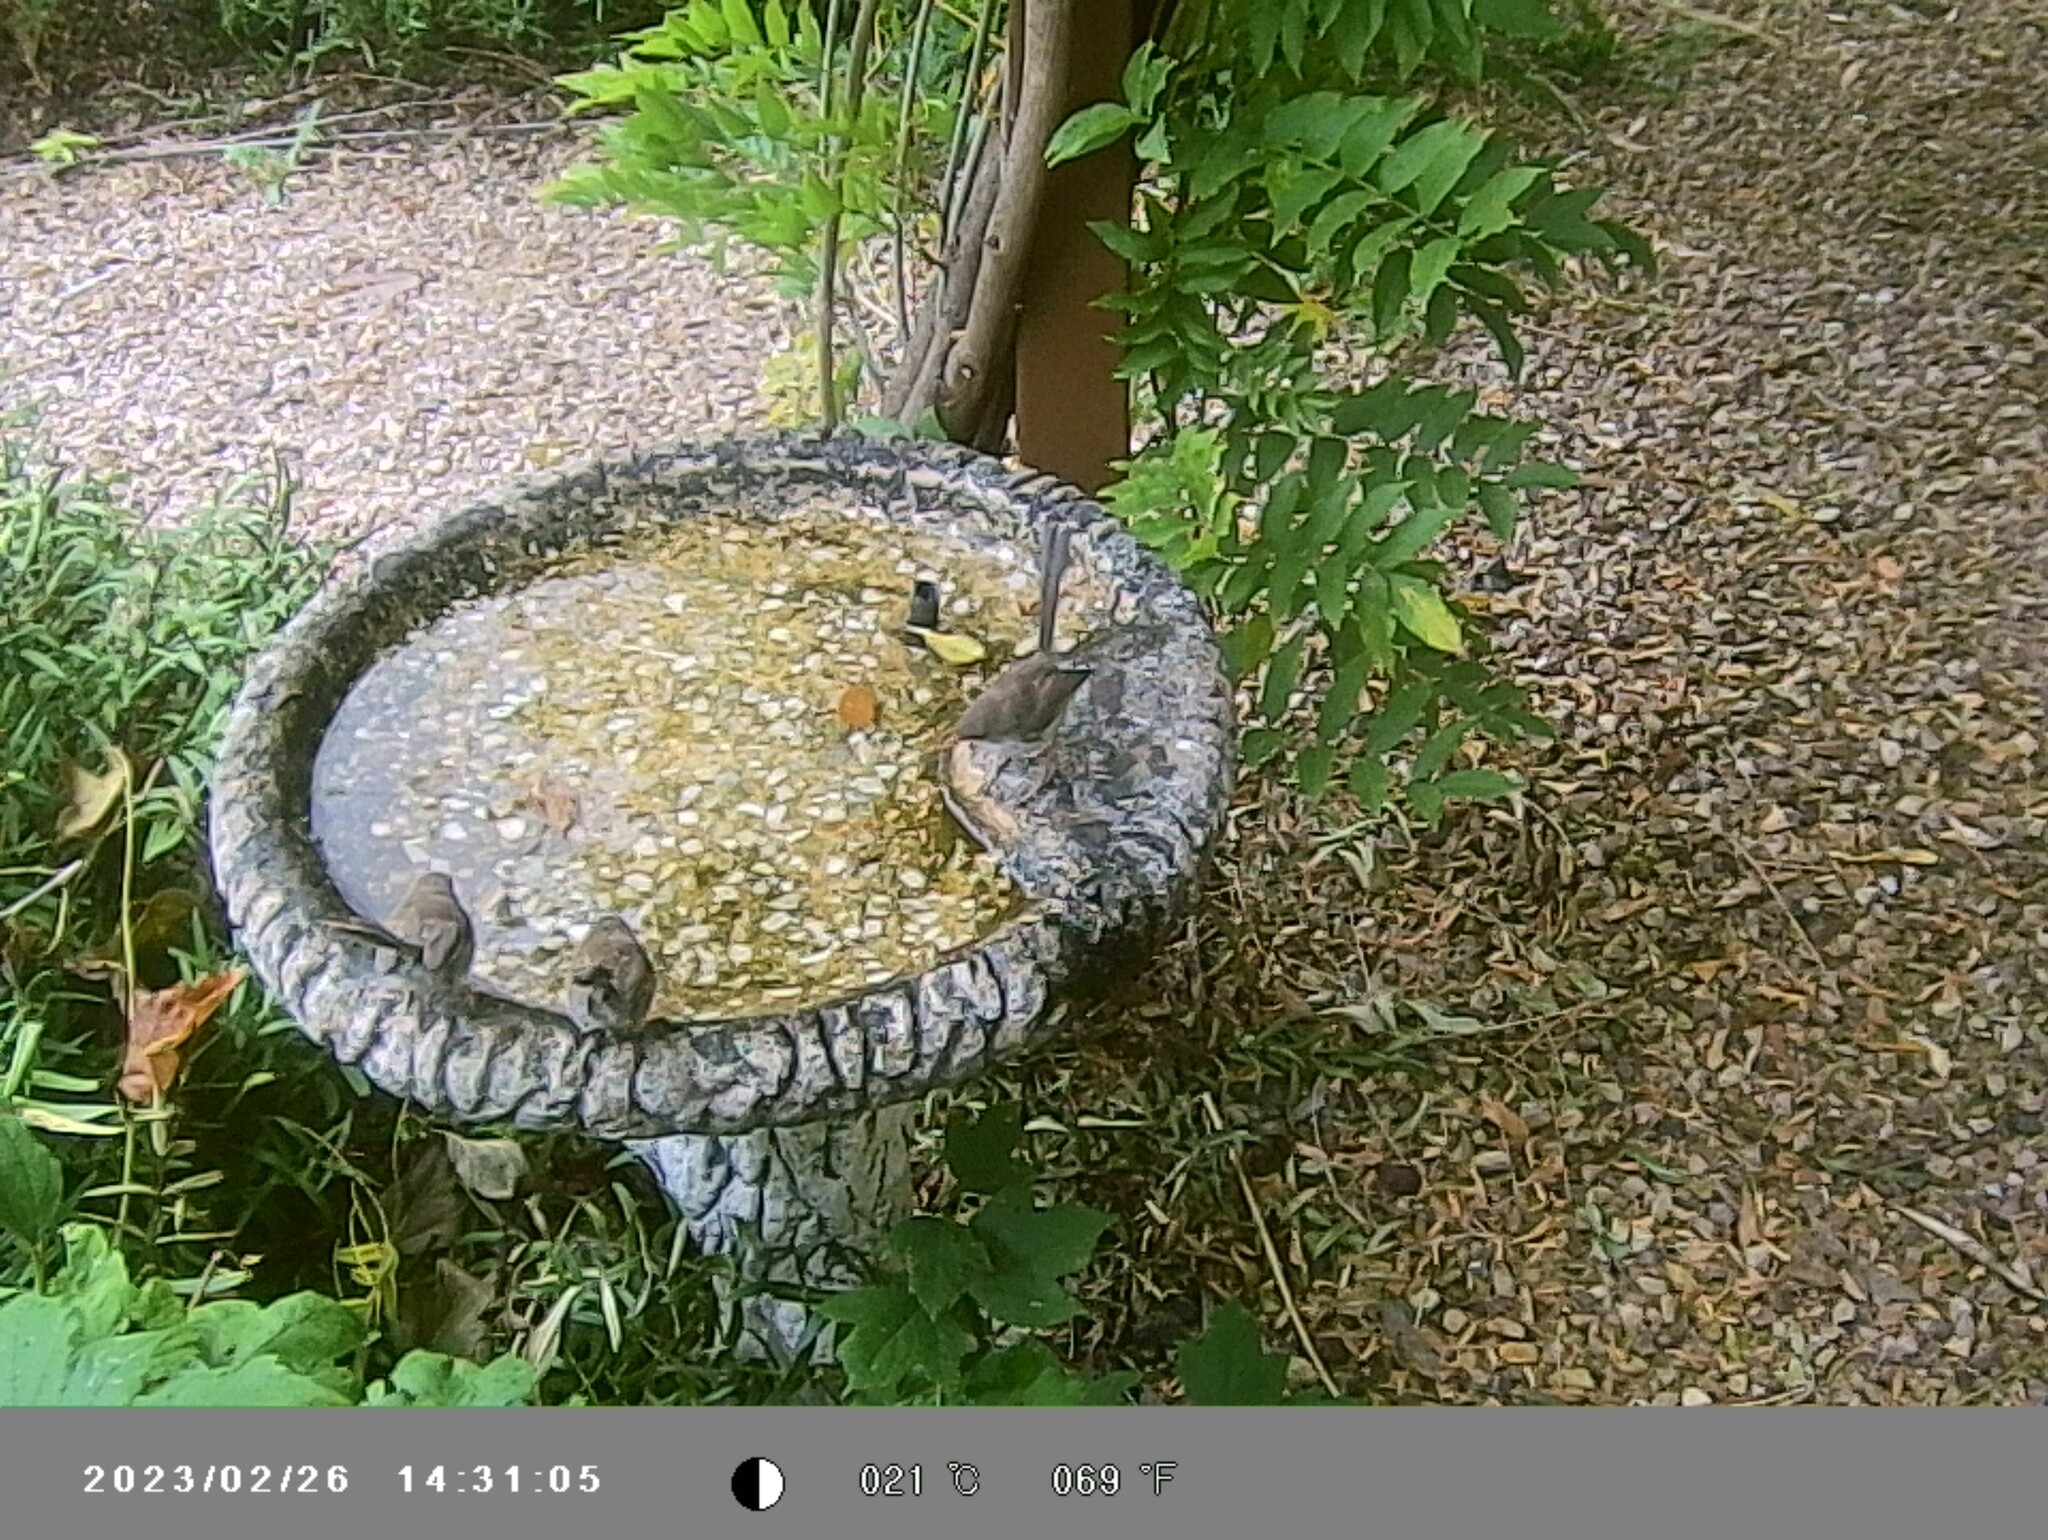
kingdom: Animalia
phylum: Chordata
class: Aves
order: Passeriformes
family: Maluridae
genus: Malurus
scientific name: Malurus cyaneus
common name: Superb fairywren
